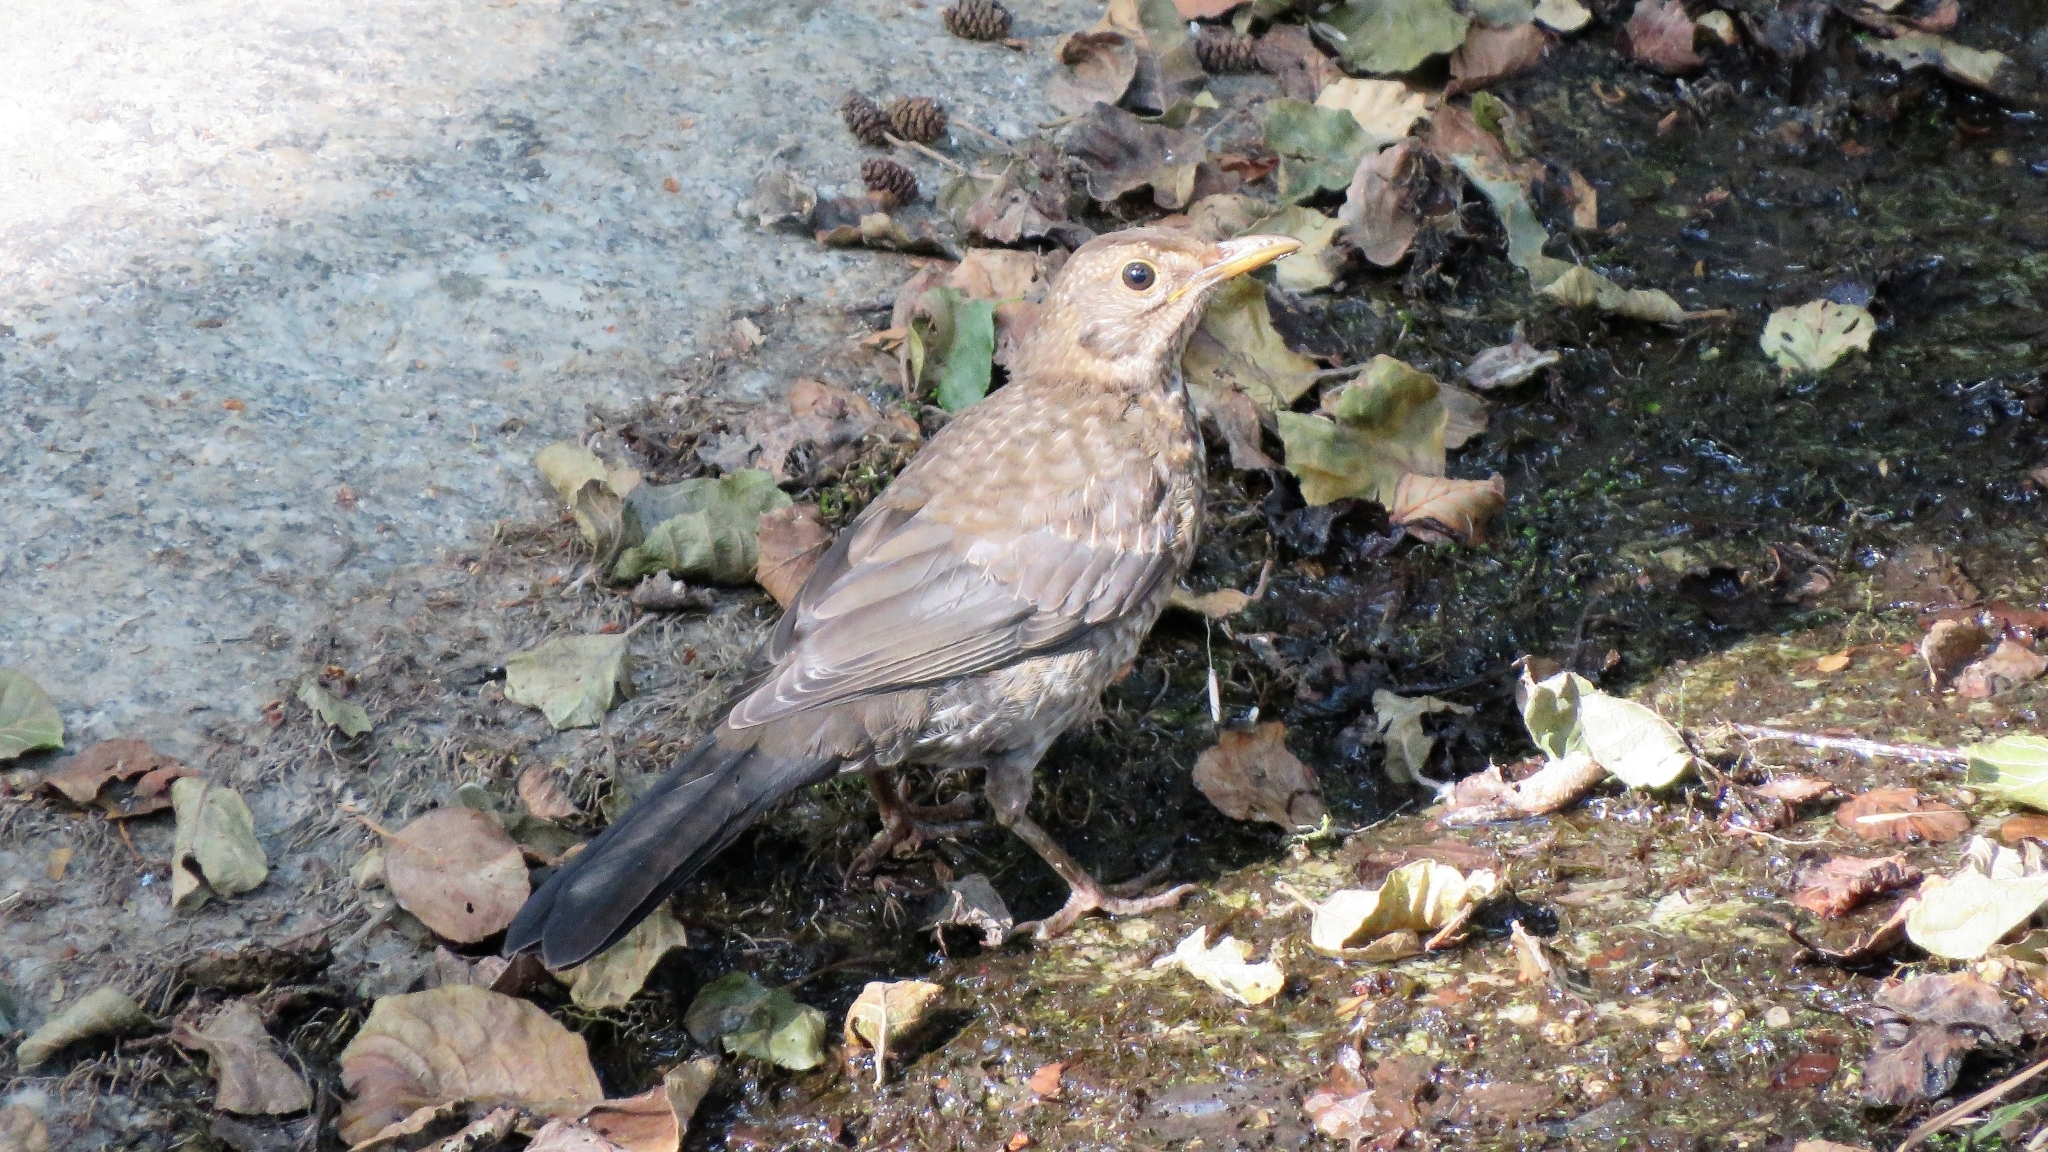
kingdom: Animalia
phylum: Chordata
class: Aves
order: Passeriformes
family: Turdidae
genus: Turdus
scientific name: Turdus merula
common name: Common blackbird
